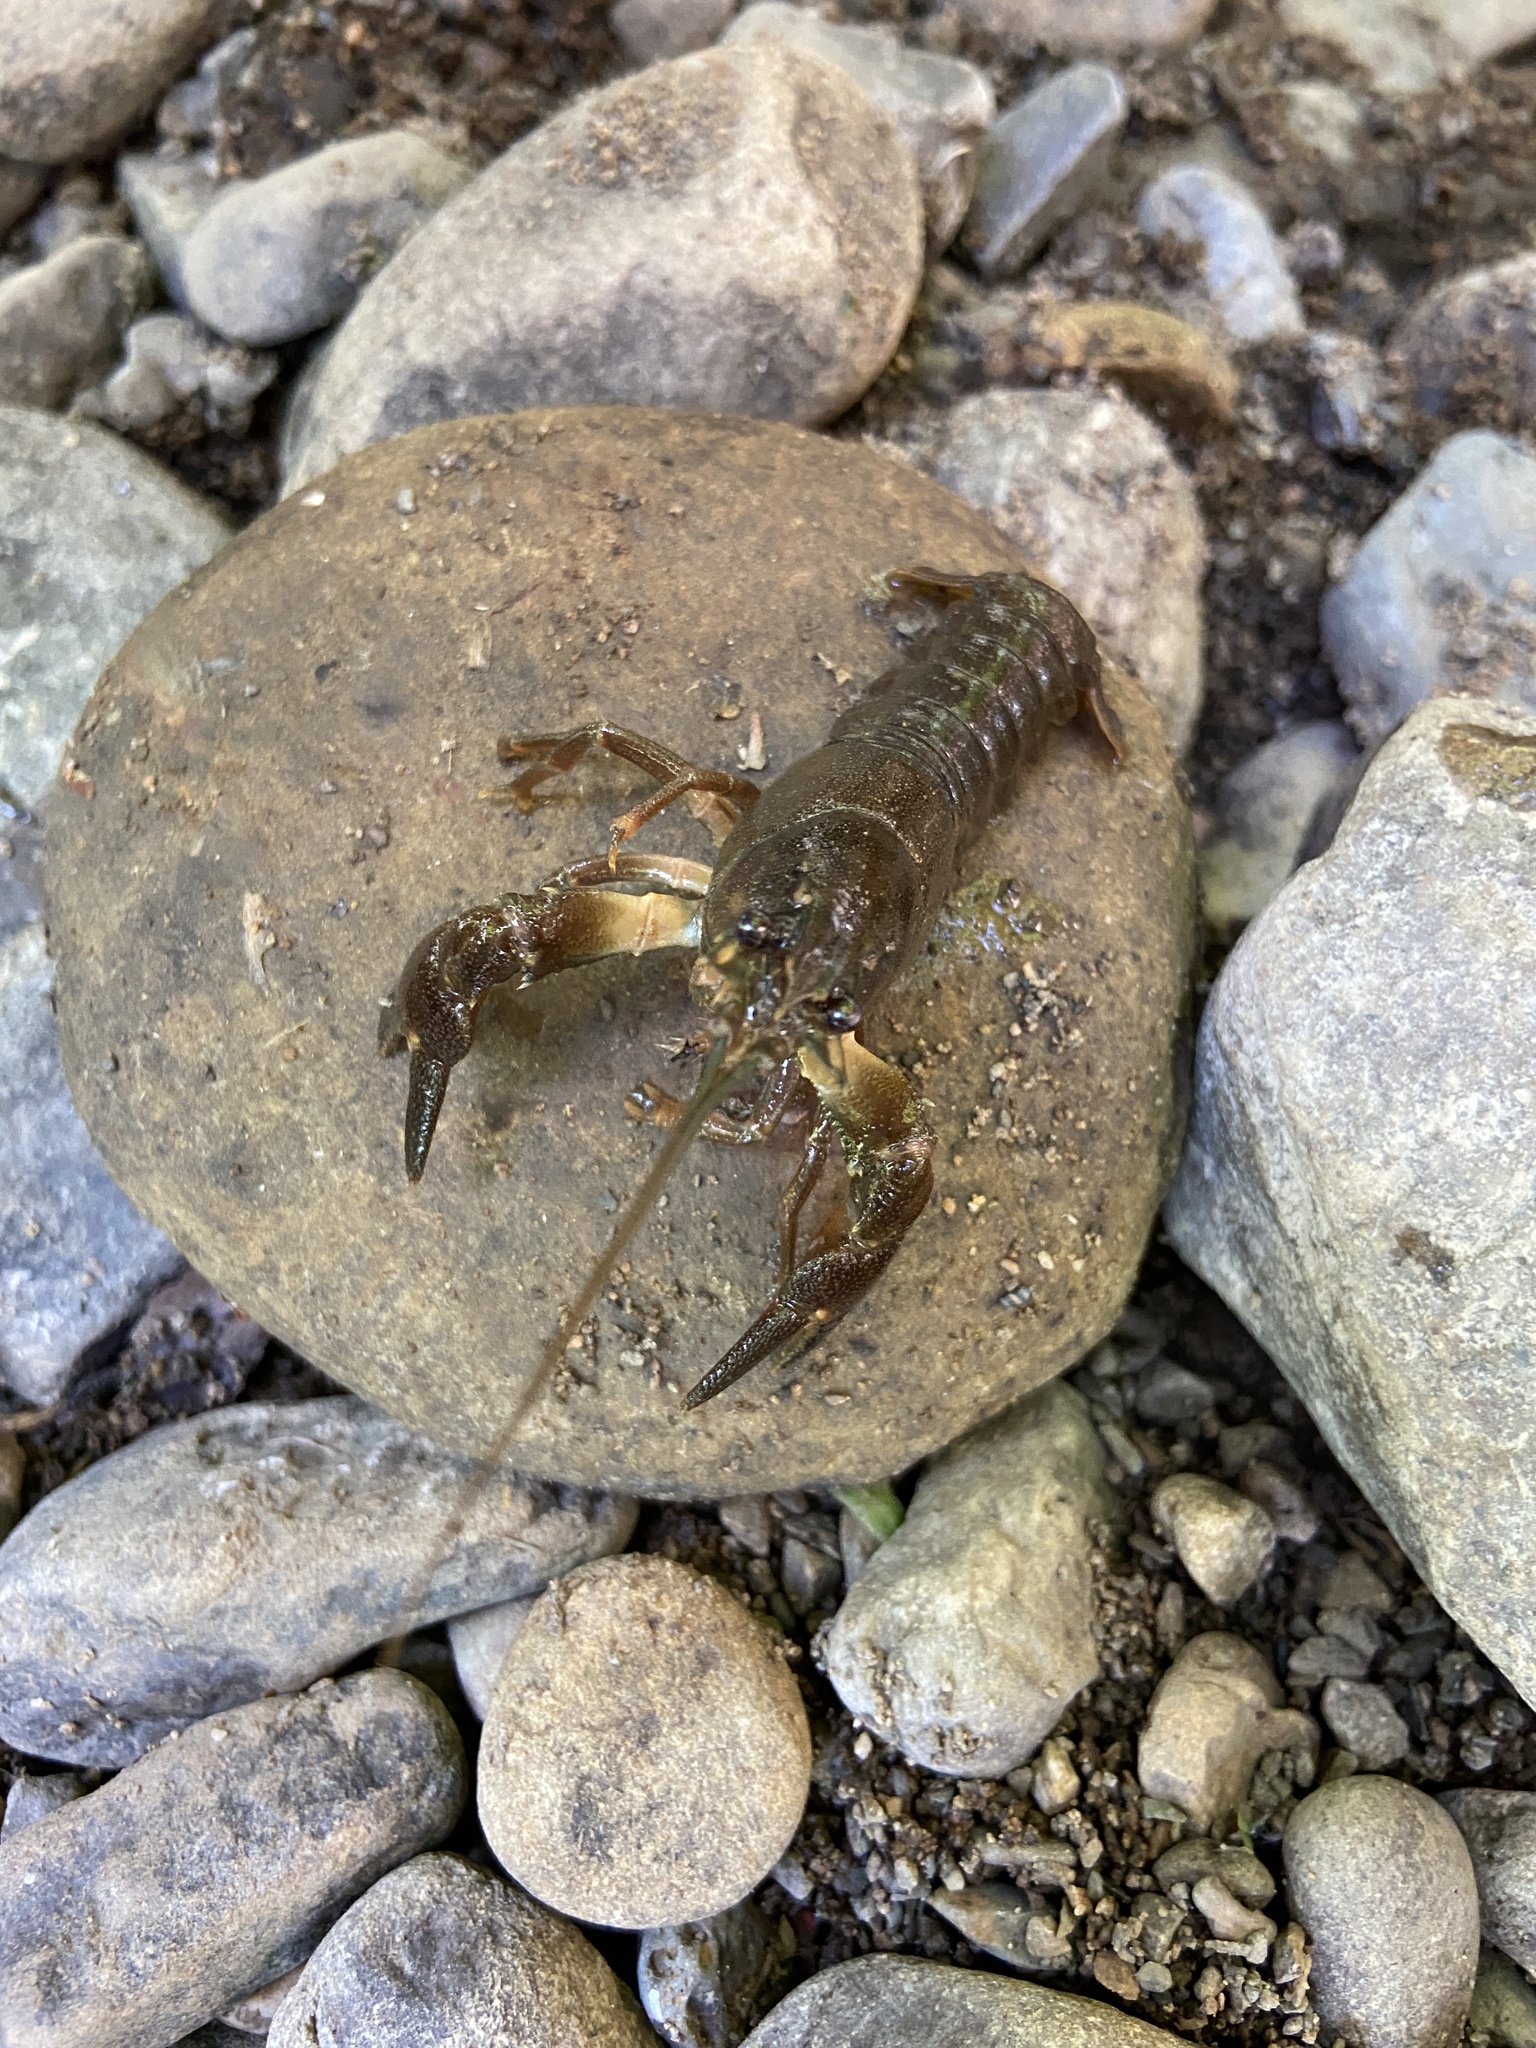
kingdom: Animalia
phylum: Arthropoda
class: Malacostraca
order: Decapoda
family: Astacidae
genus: Pacifastacus
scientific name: Pacifastacus leniusculus
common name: Signal crayfish
